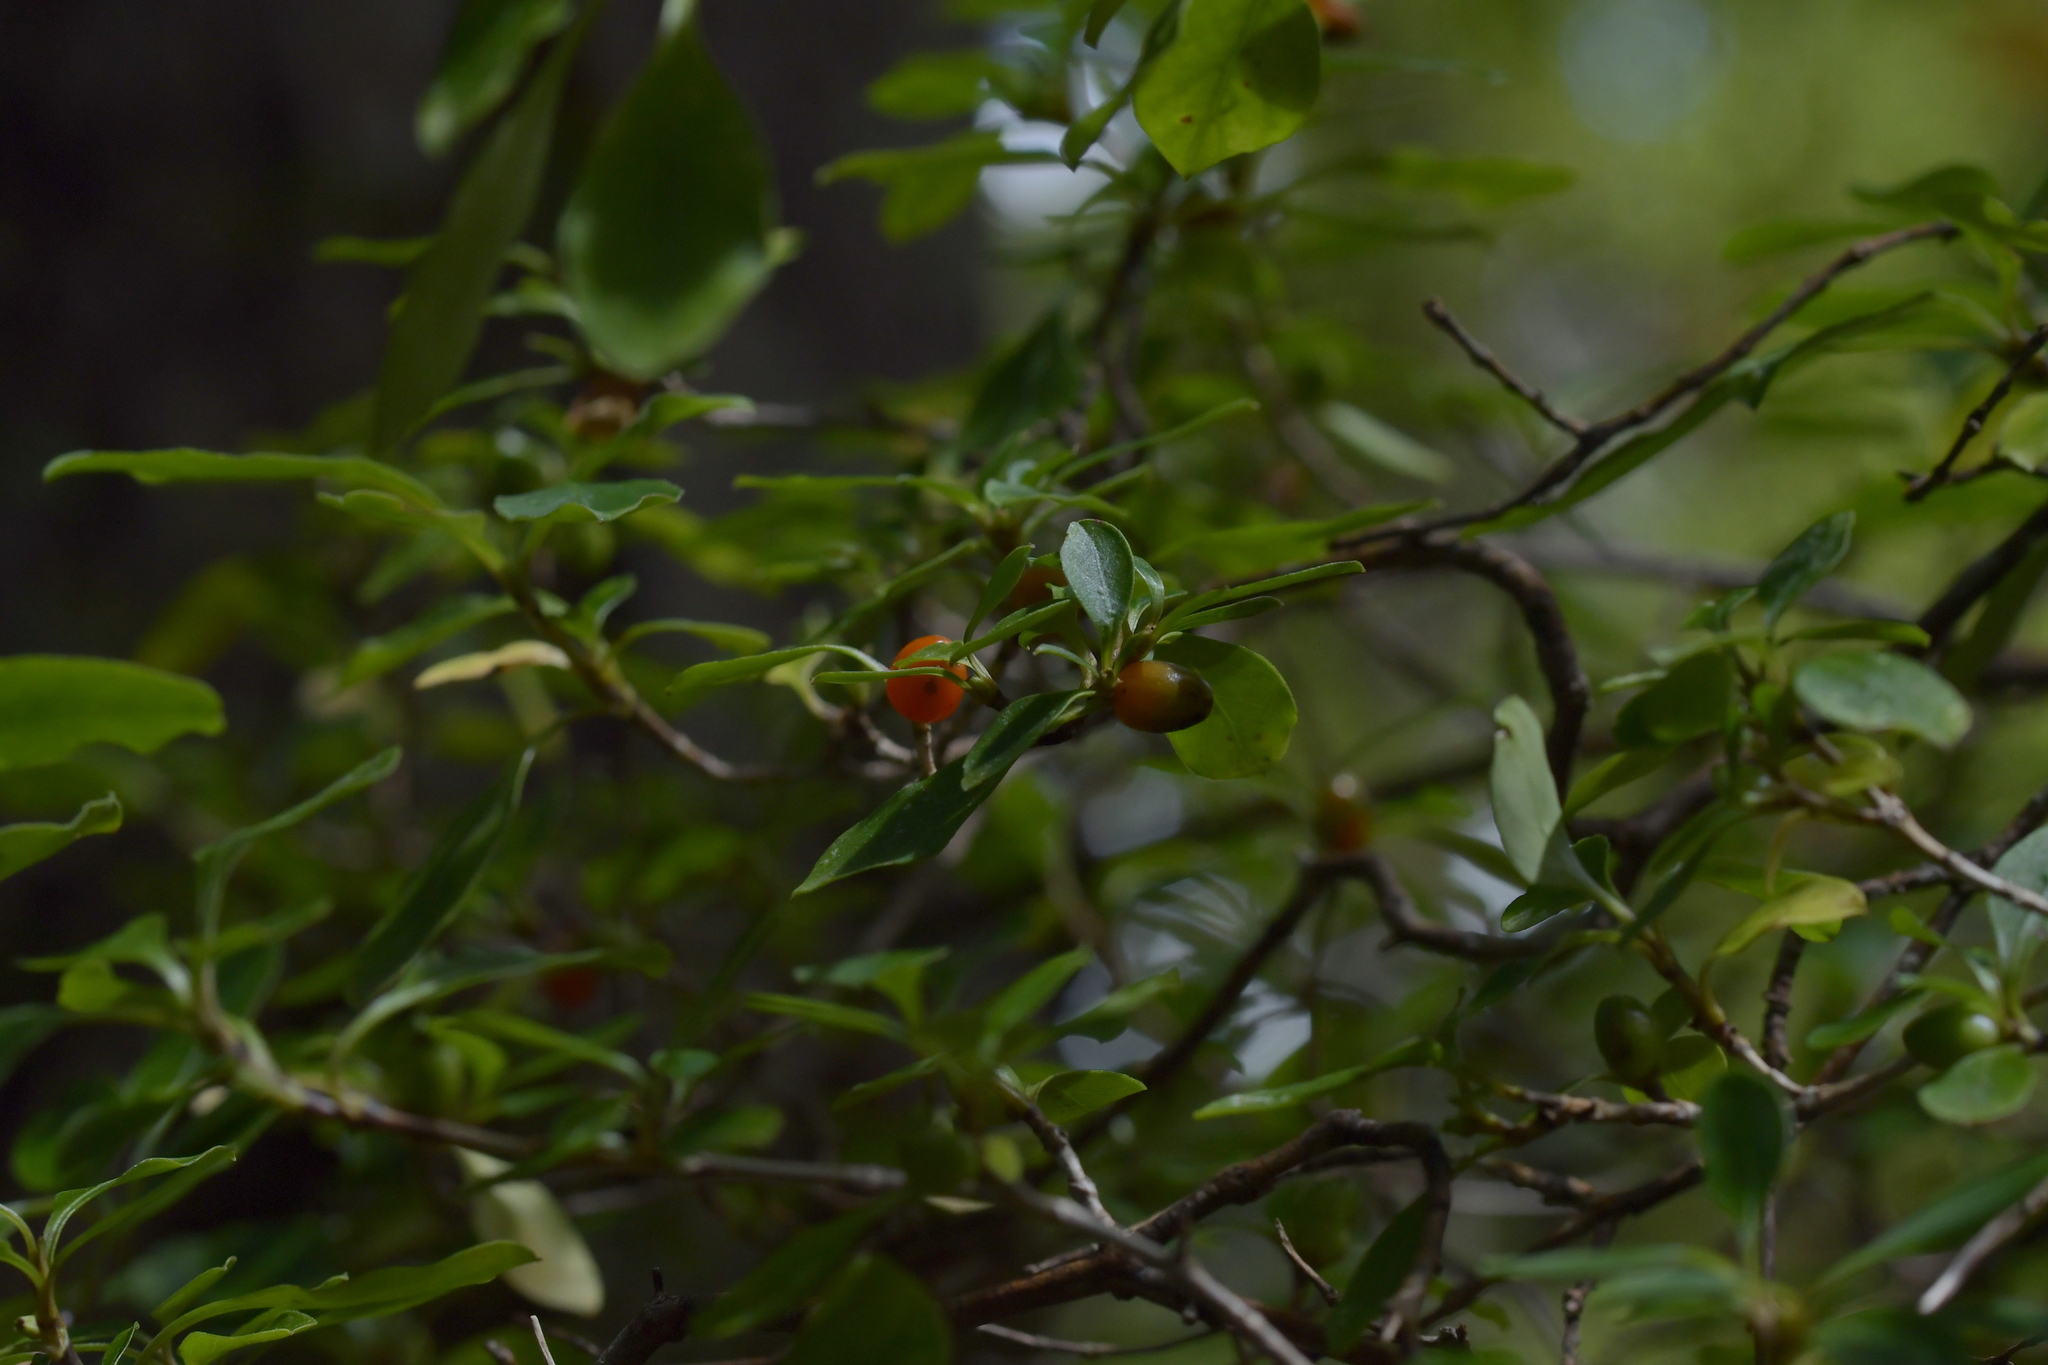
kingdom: Plantae
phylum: Tracheophyta
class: Magnoliopsida
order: Gentianales
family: Rubiaceae
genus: Coprosma
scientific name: Coprosma foetidissima
